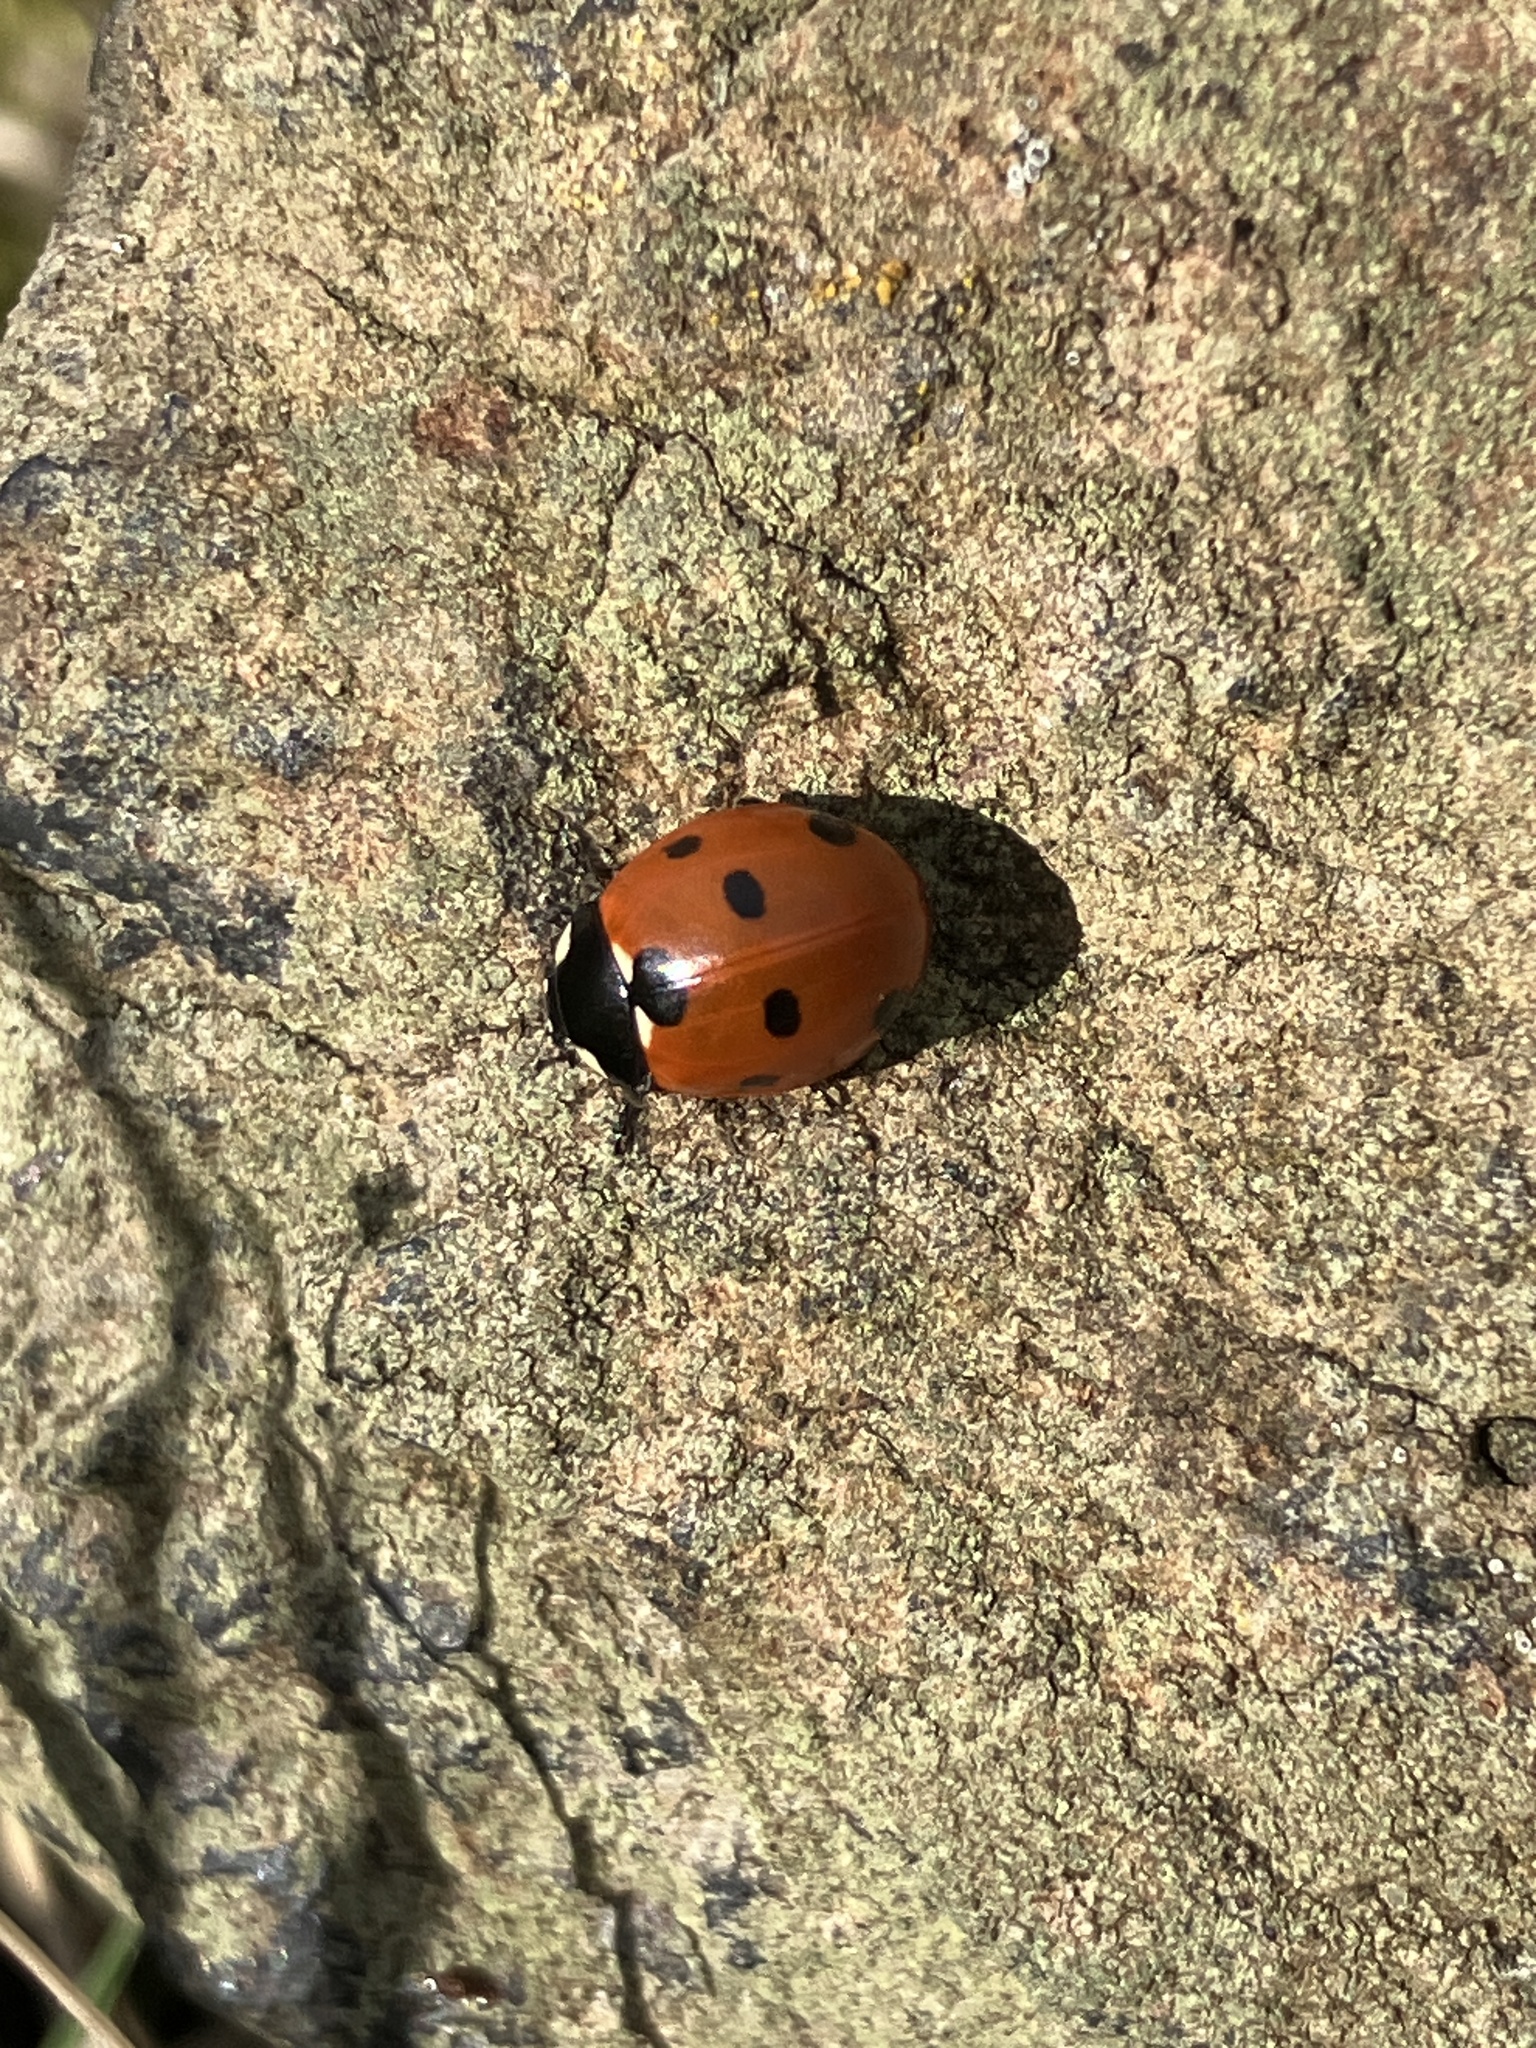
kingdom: Animalia
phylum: Arthropoda
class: Insecta
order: Coleoptera
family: Coccinellidae
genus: Coccinella
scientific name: Coccinella septempunctata
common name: Sevenspotted lady beetle
